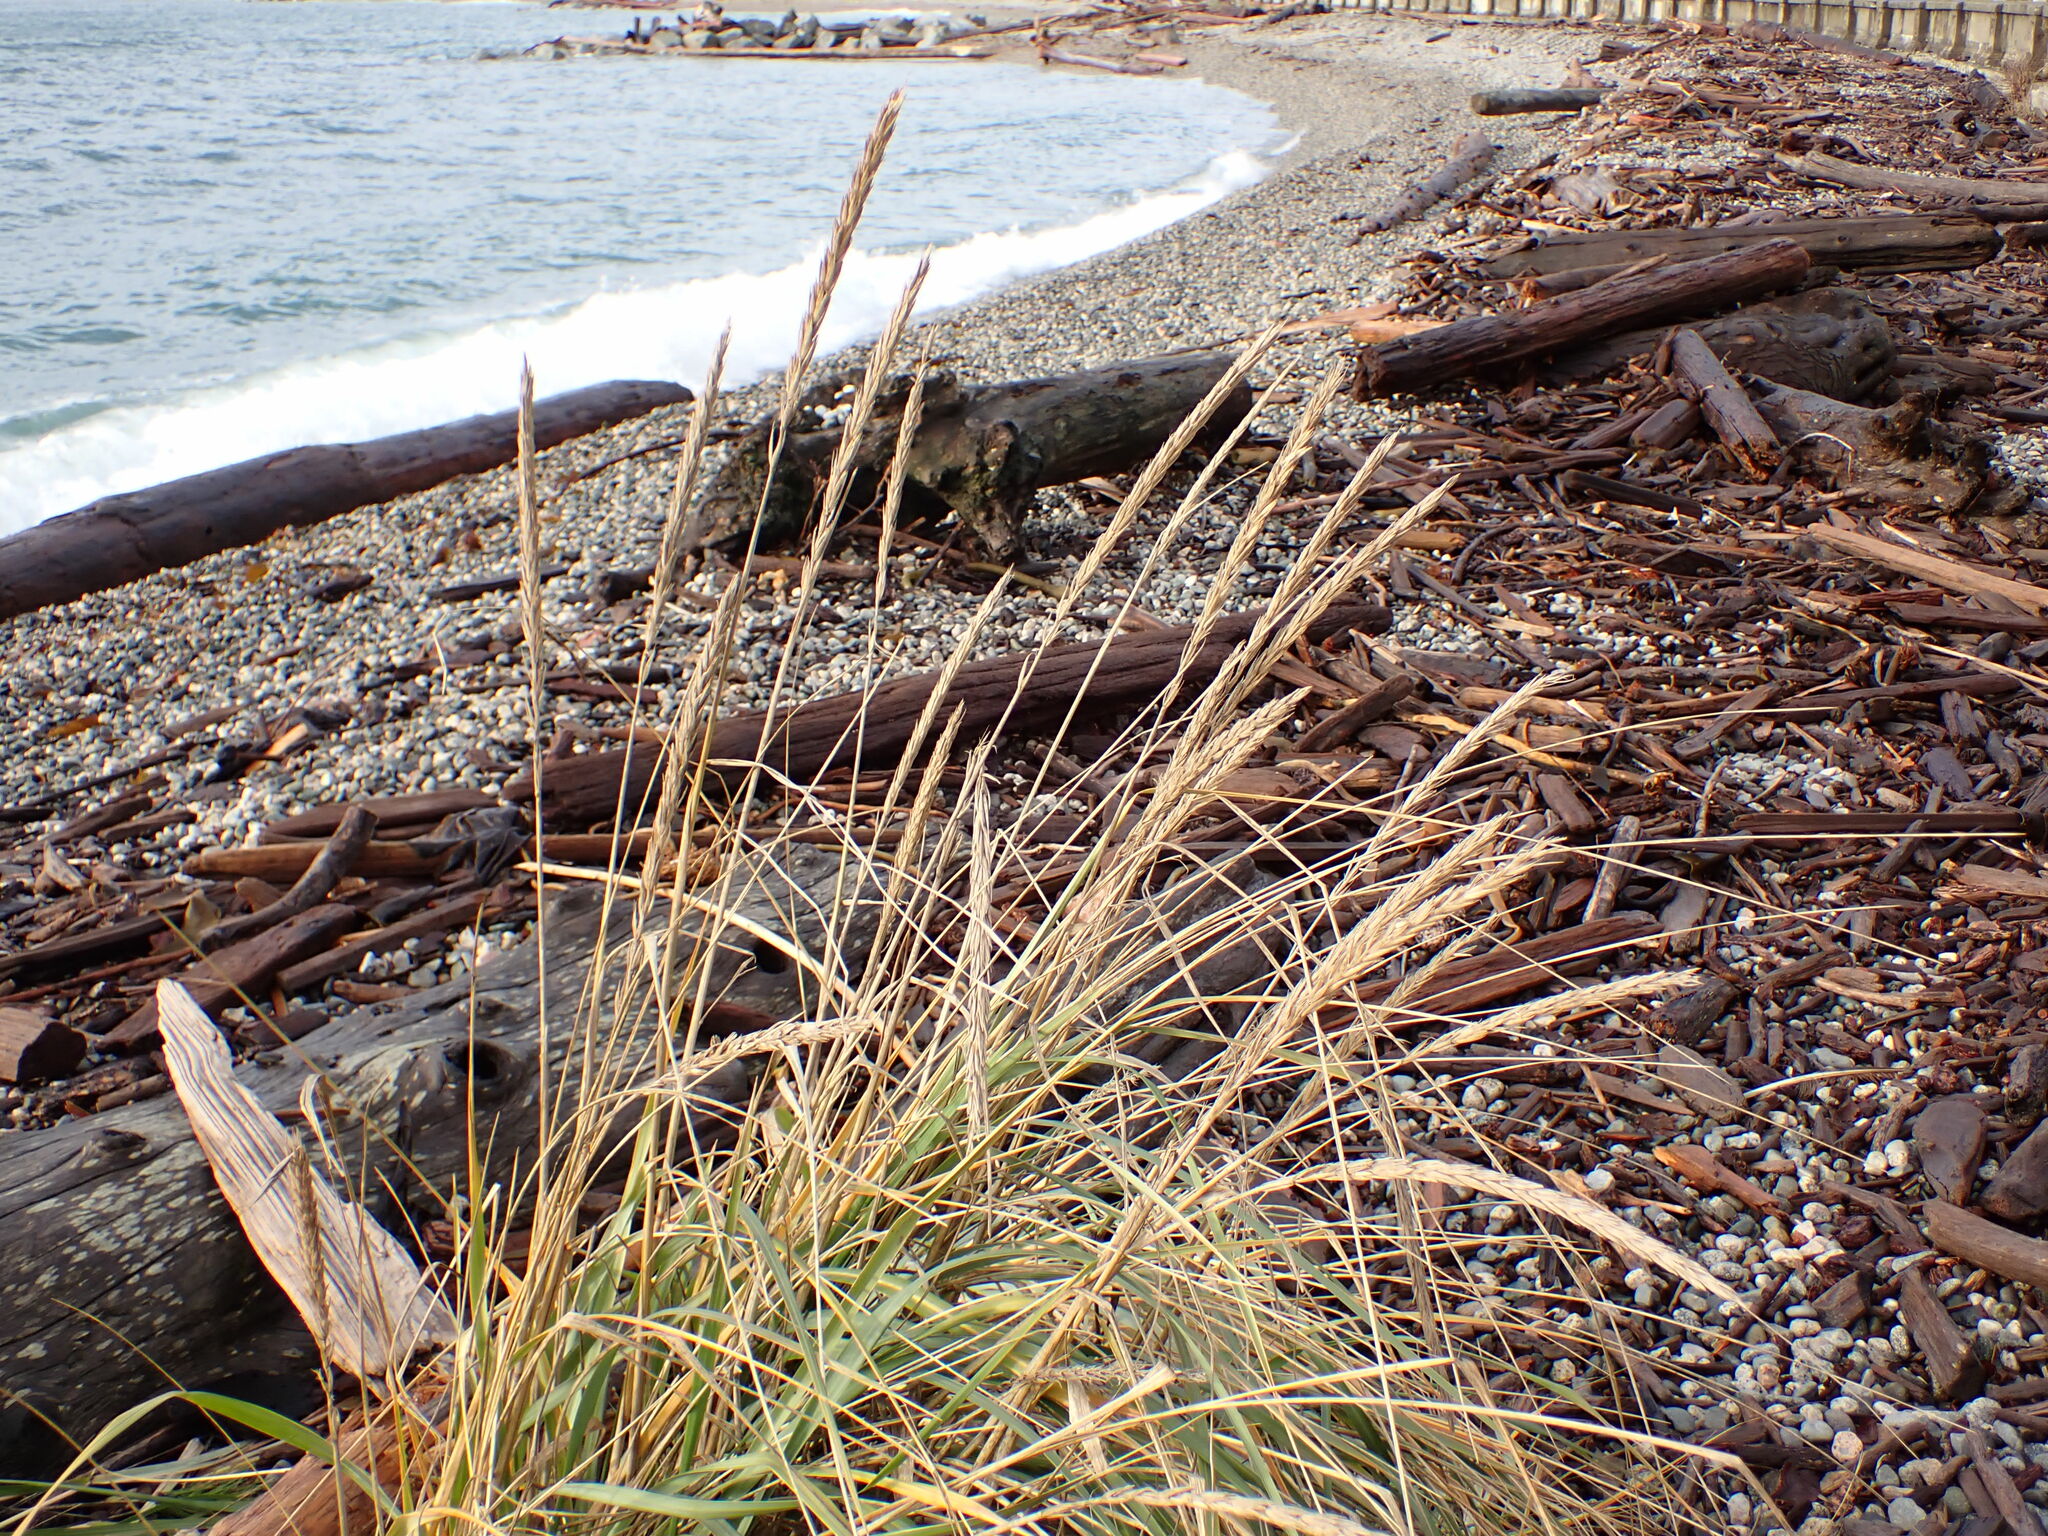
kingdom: Plantae
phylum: Tracheophyta
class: Liliopsida
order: Poales
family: Poaceae
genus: Leymus
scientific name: Leymus mollis
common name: American dune grass
